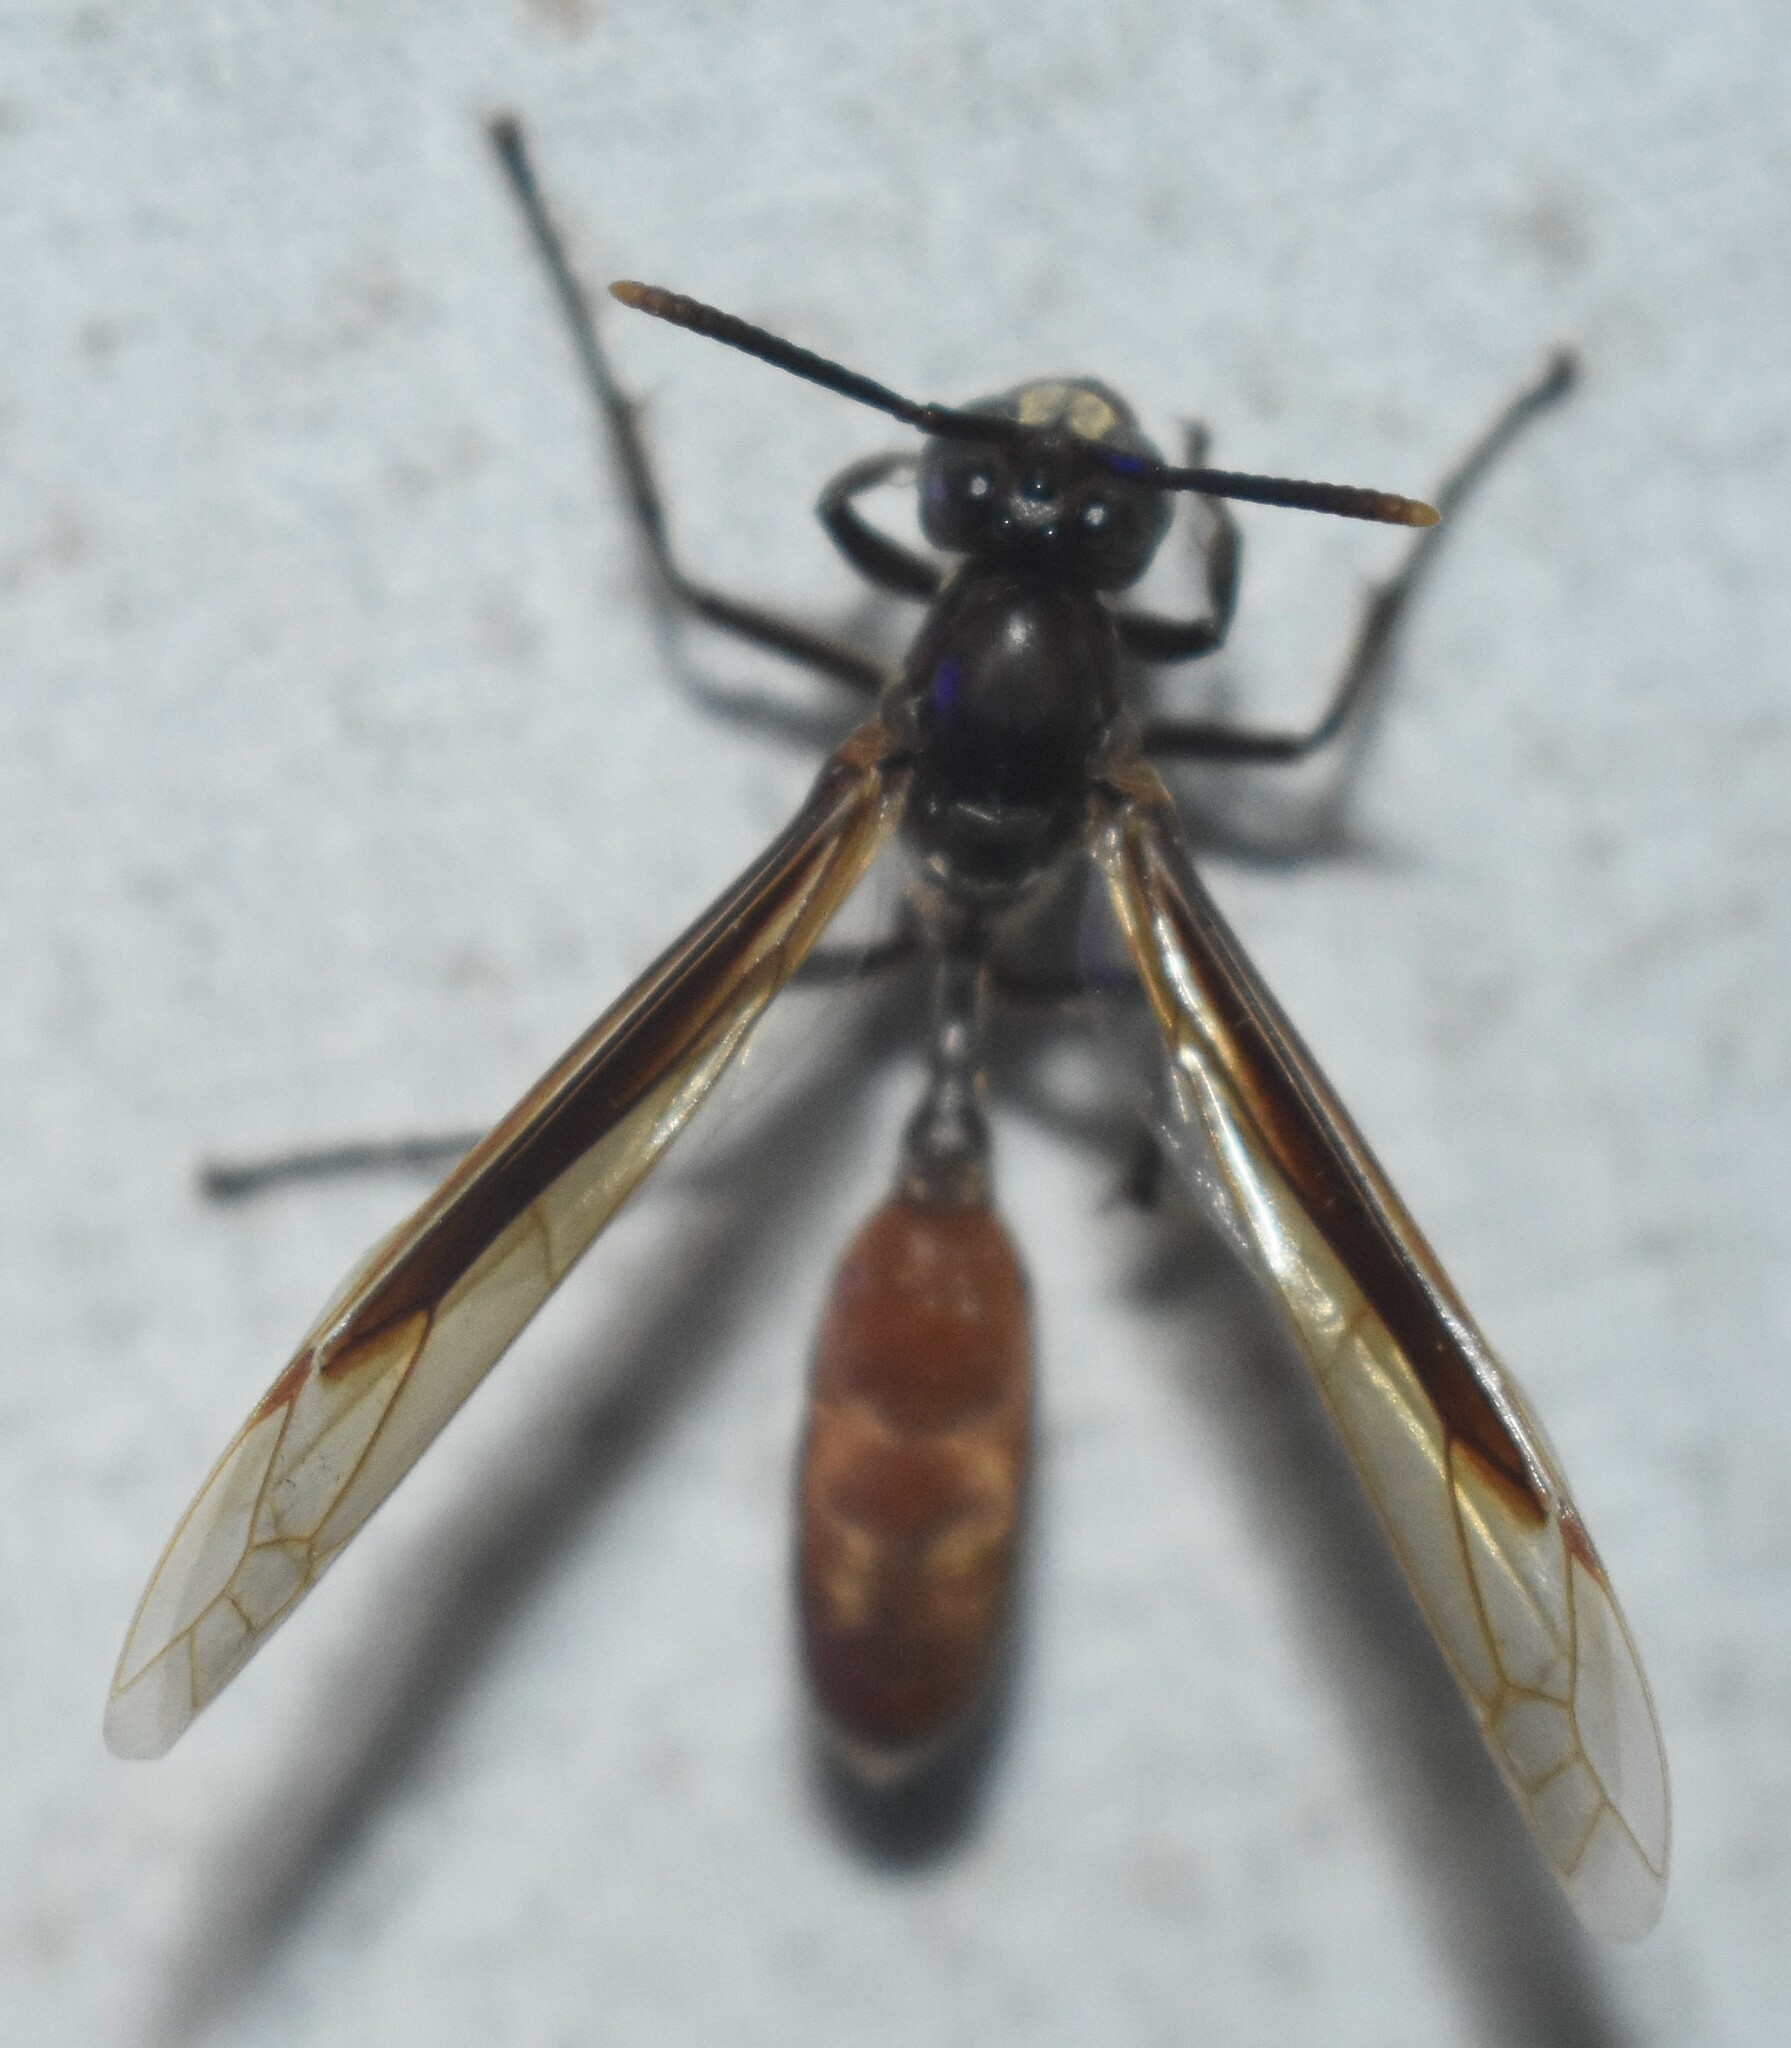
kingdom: Animalia
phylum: Arthropoda
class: Insecta
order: Hymenoptera
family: Vespidae
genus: Apoica
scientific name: Apoica thoracica
